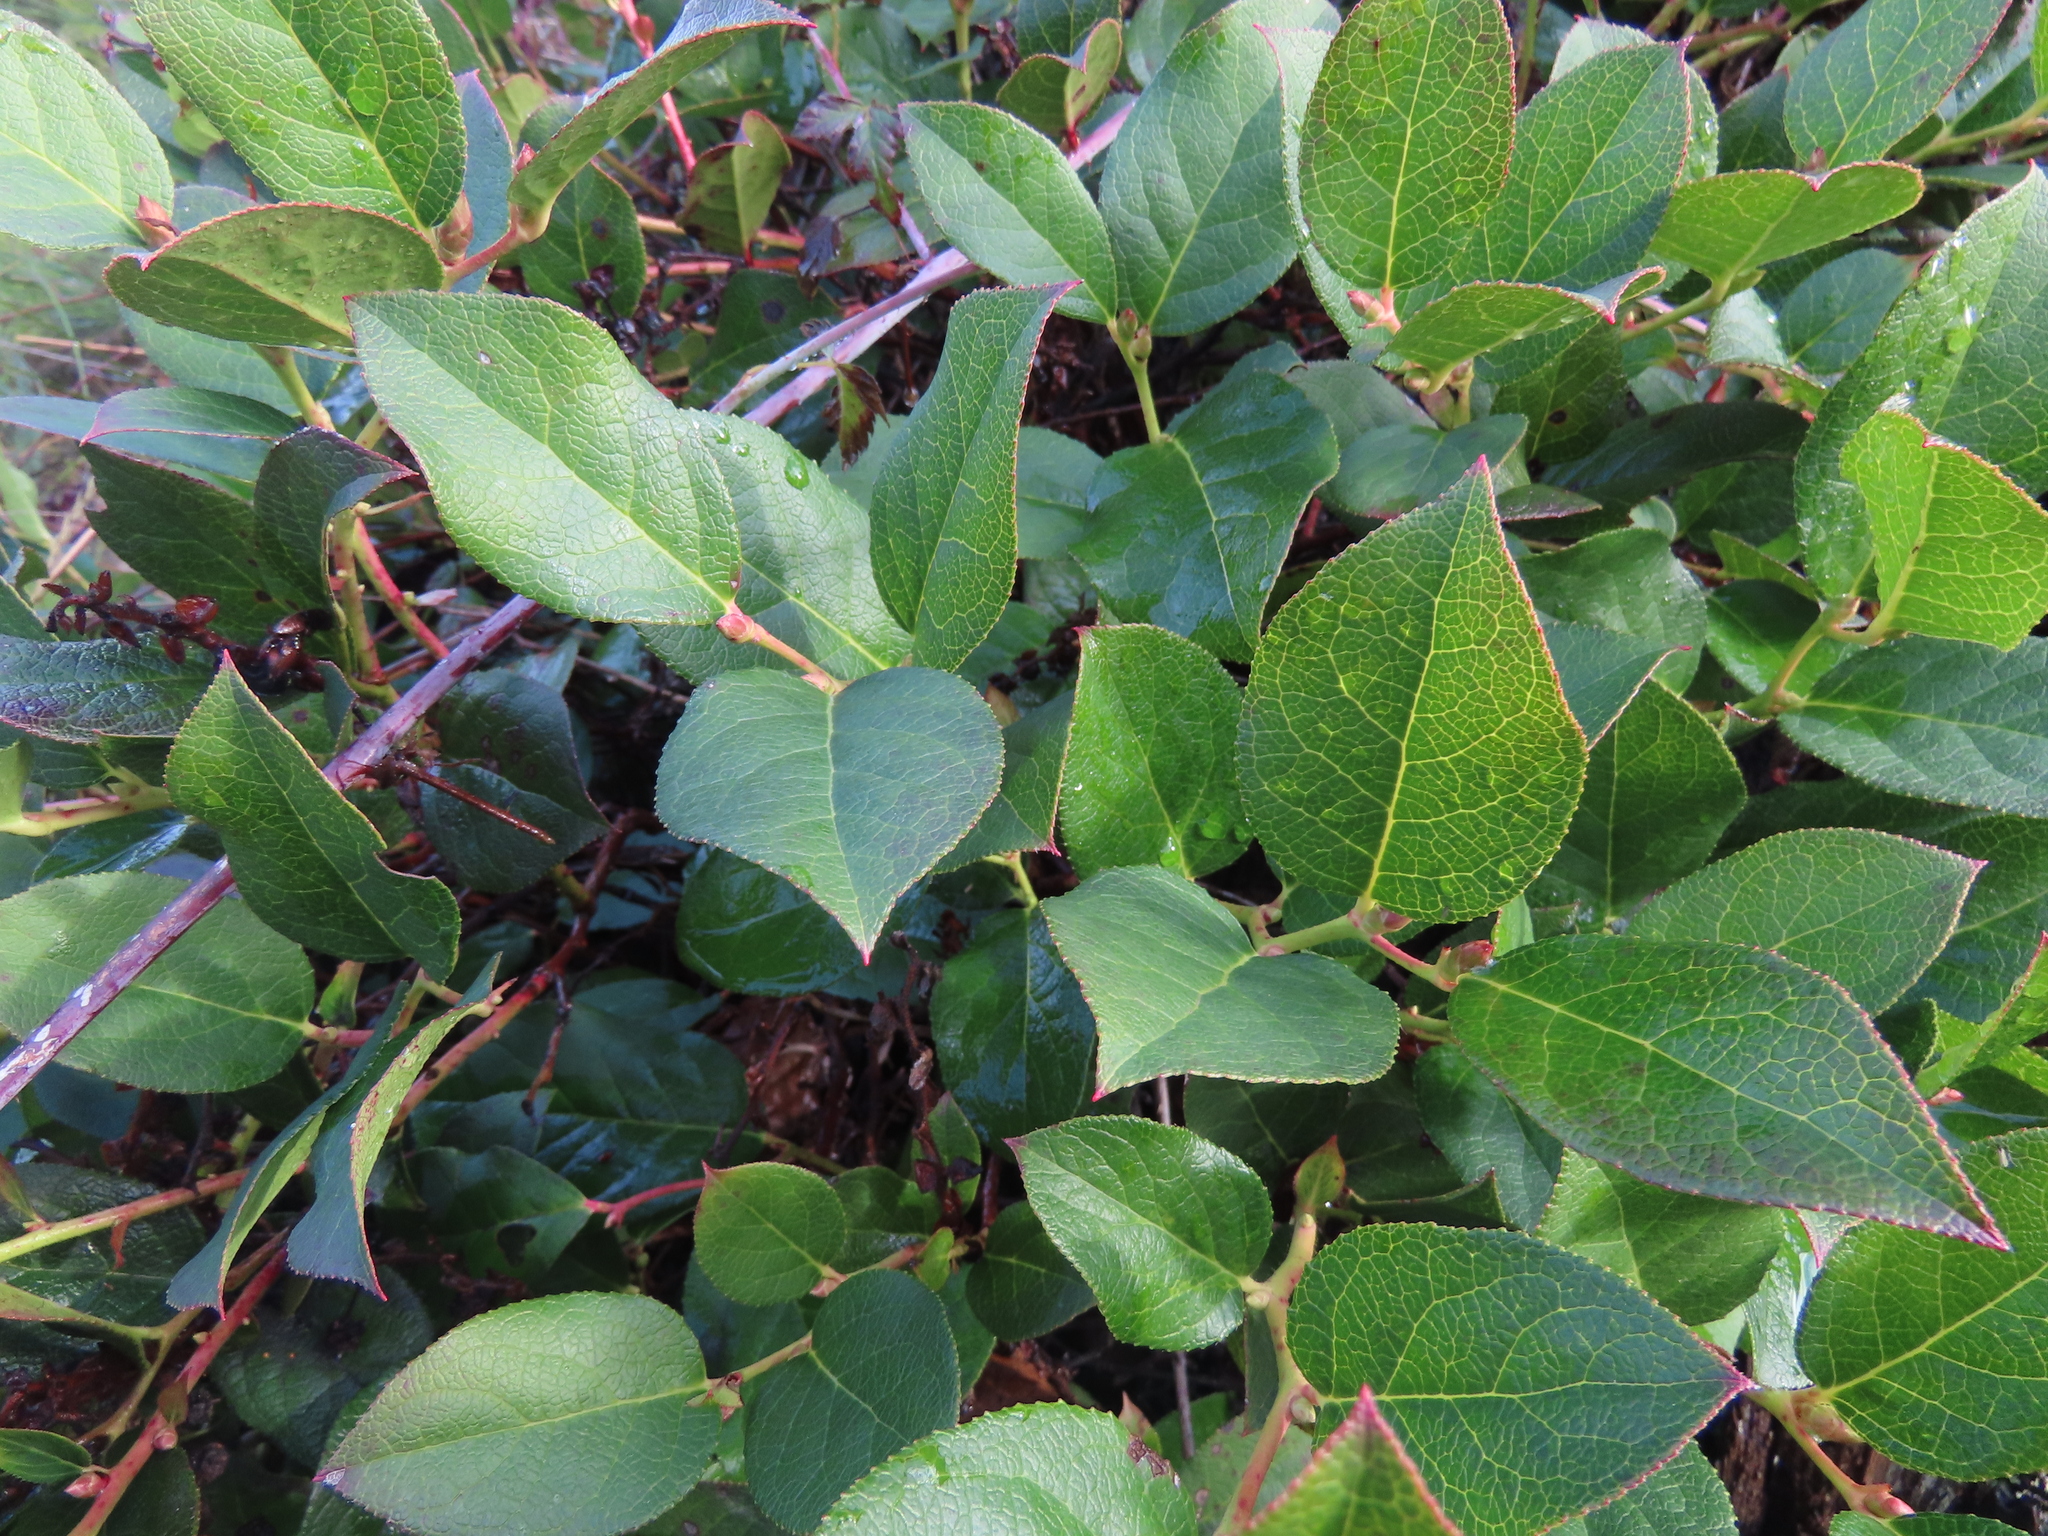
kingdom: Plantae
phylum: Tracheophyta
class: Magnoliopsida
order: Ericales
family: Ericaceae
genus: Gaultheria
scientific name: Gaultheria shallon
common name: Shallon
